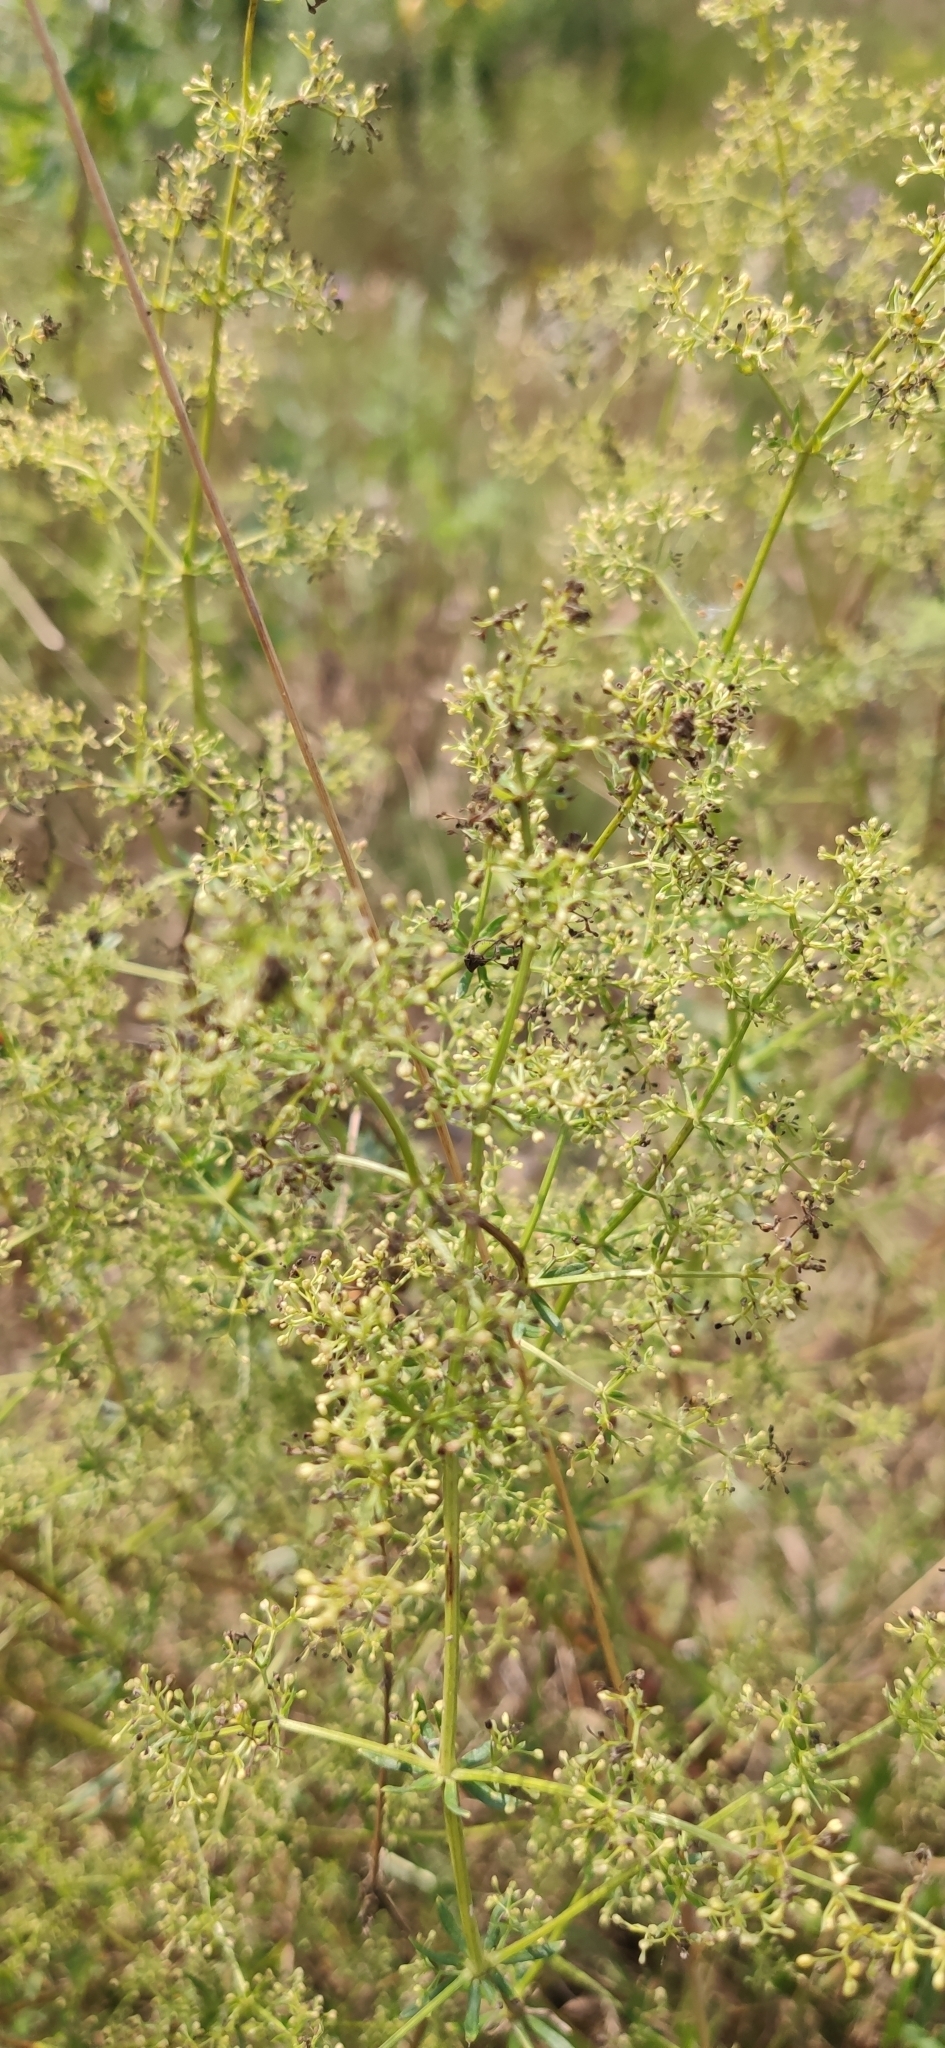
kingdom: Plantae
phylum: Tracheophyta
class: Magnoliopsida
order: Gentianales
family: Rubiaceae
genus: Galium
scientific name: Galium mollugo
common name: Hedge bedstraw
